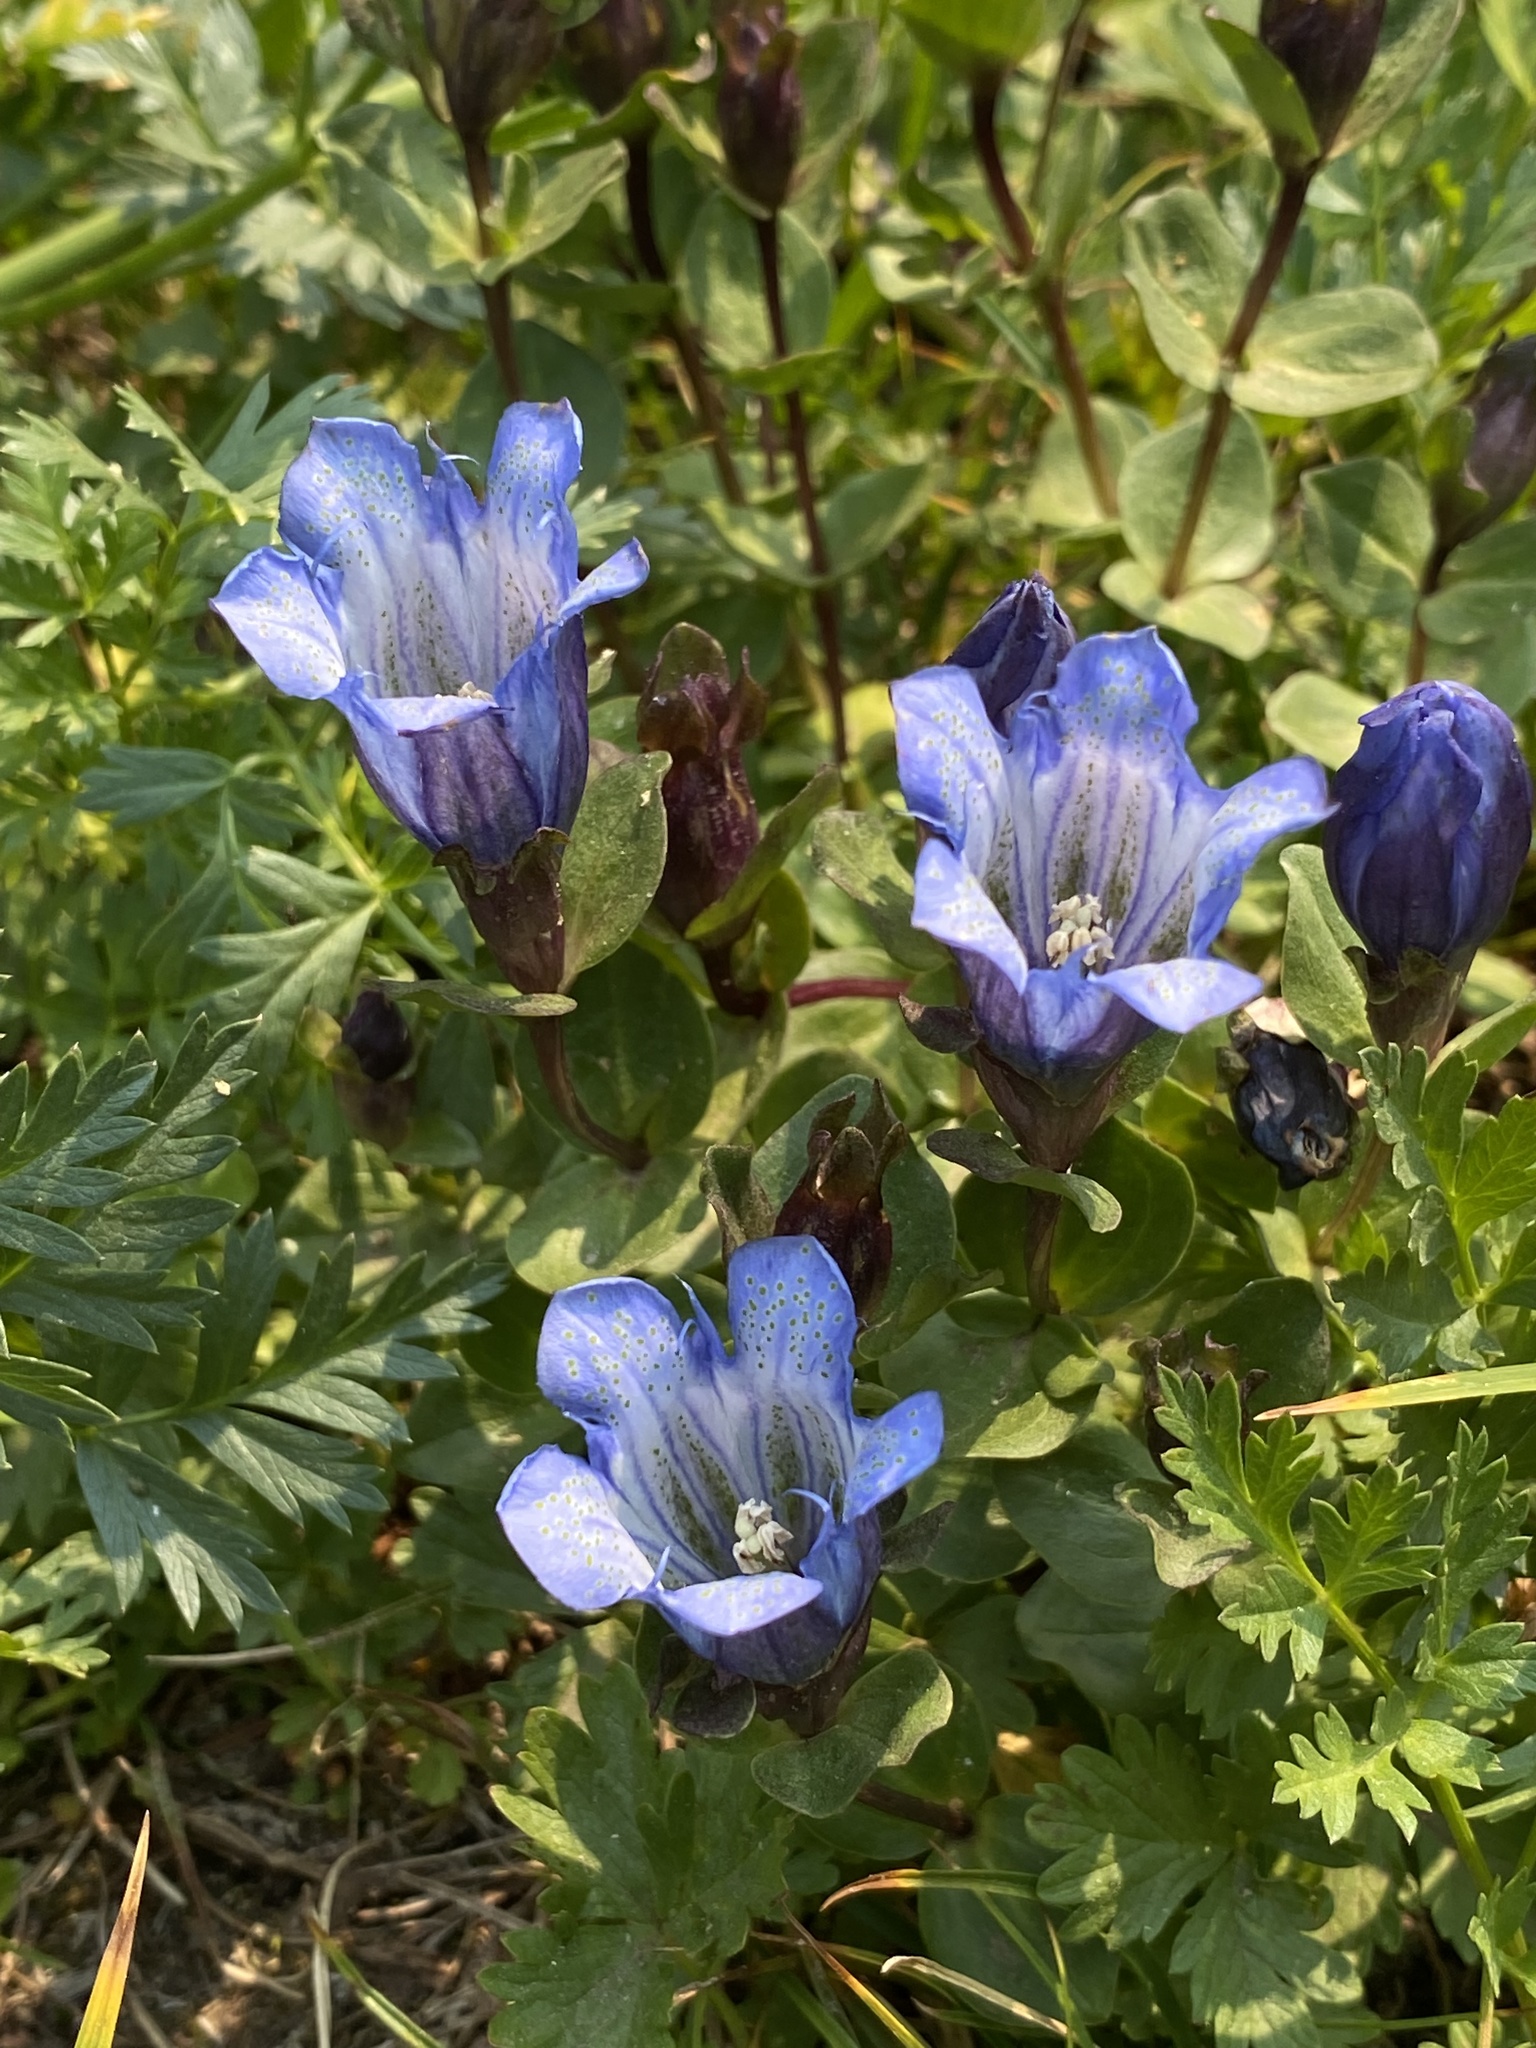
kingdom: Plantae
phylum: Tracheophyta
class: Magnoliopsida
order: Gentianales
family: Gentianaceae
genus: Gentiana
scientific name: Gentiana calycosa
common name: Rainier pleated gentian
